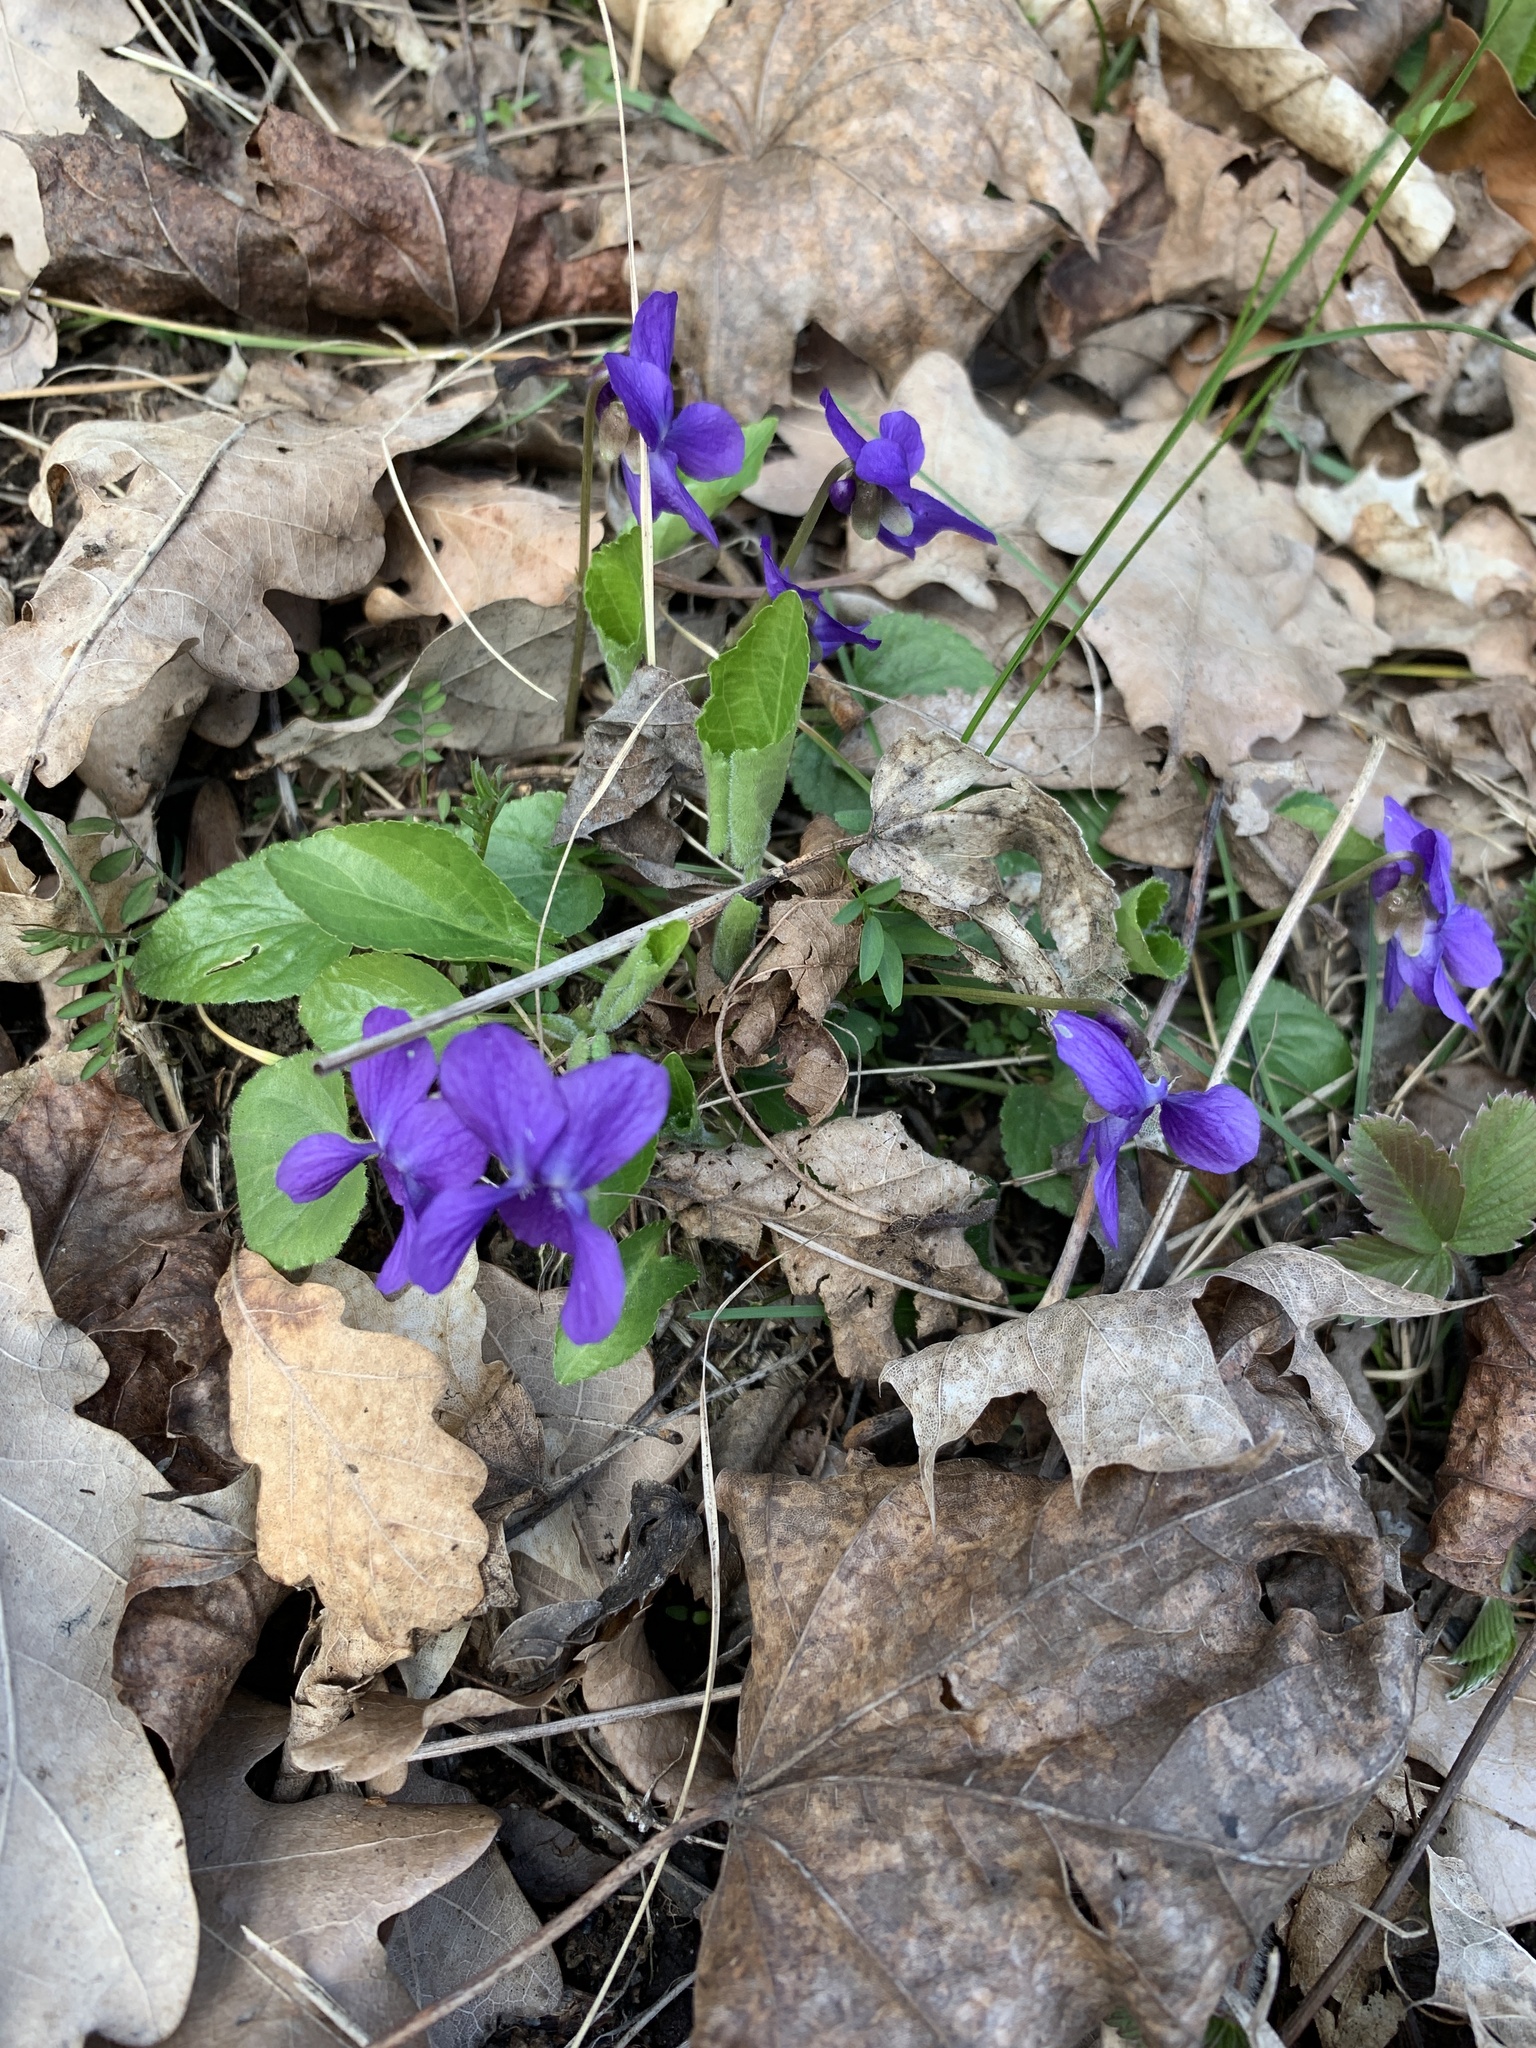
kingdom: Plantae
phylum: Tracheophyta
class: Magnoliopsida
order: Malpighiales
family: Violaceae
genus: Viola
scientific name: Viola odorata
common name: Sweet violet
